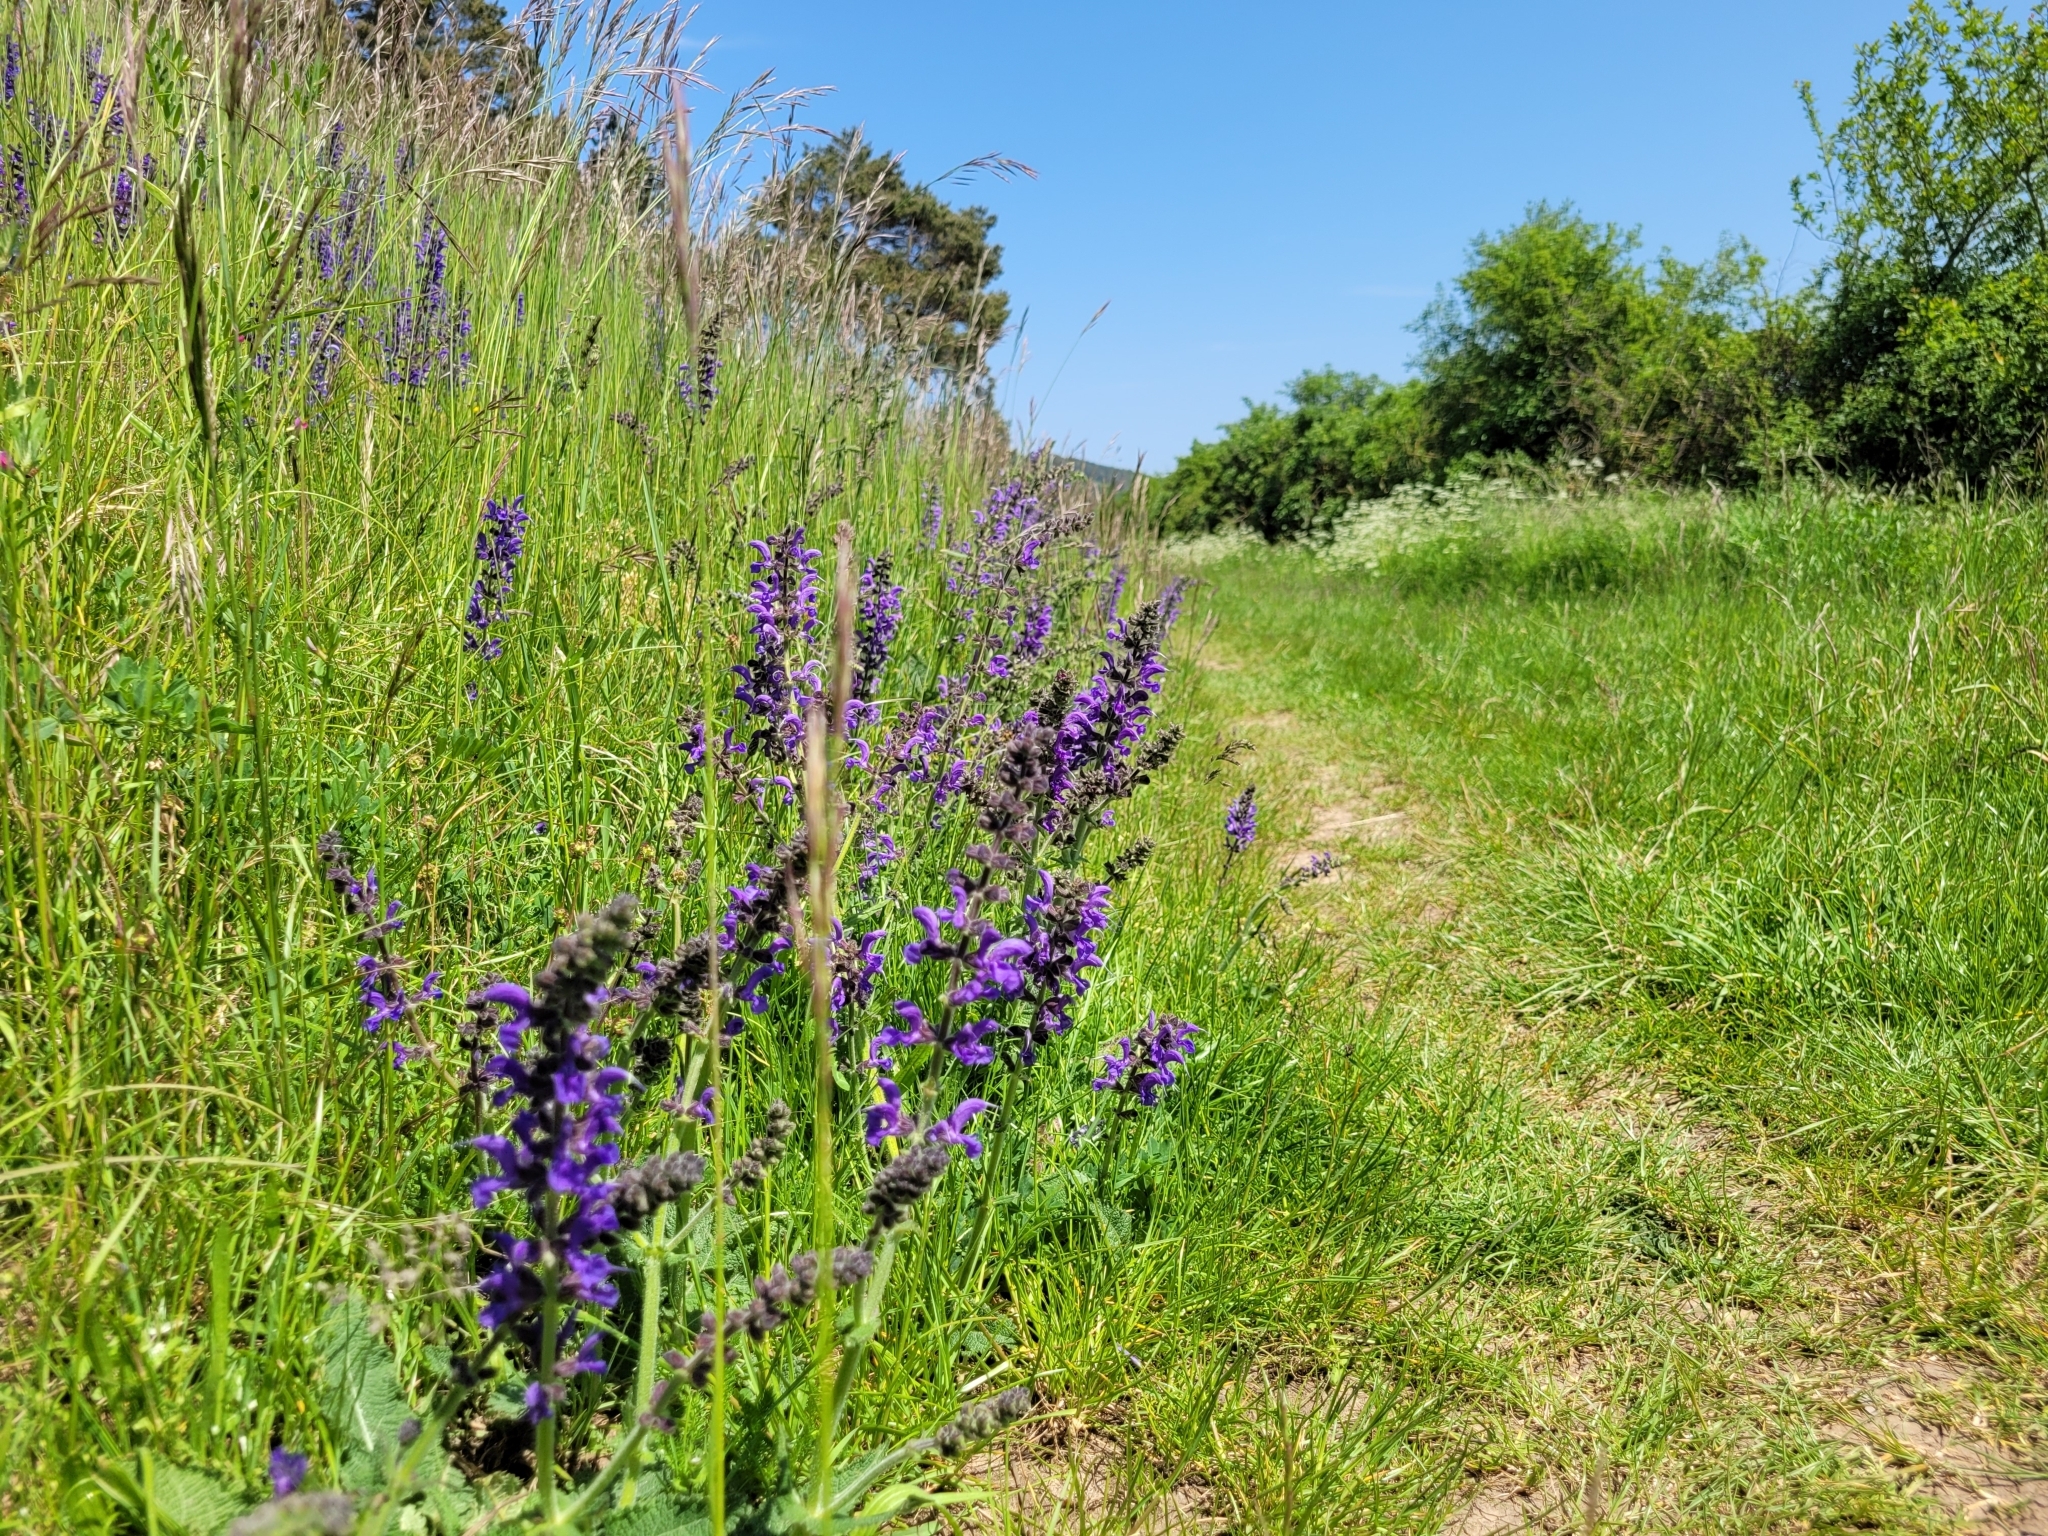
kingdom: Plantae
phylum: Tracheophyta
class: Magnoliopsida
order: Lamiales
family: Lamiaceae
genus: Salvia
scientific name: Salvia pratensis
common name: Meadow sage
